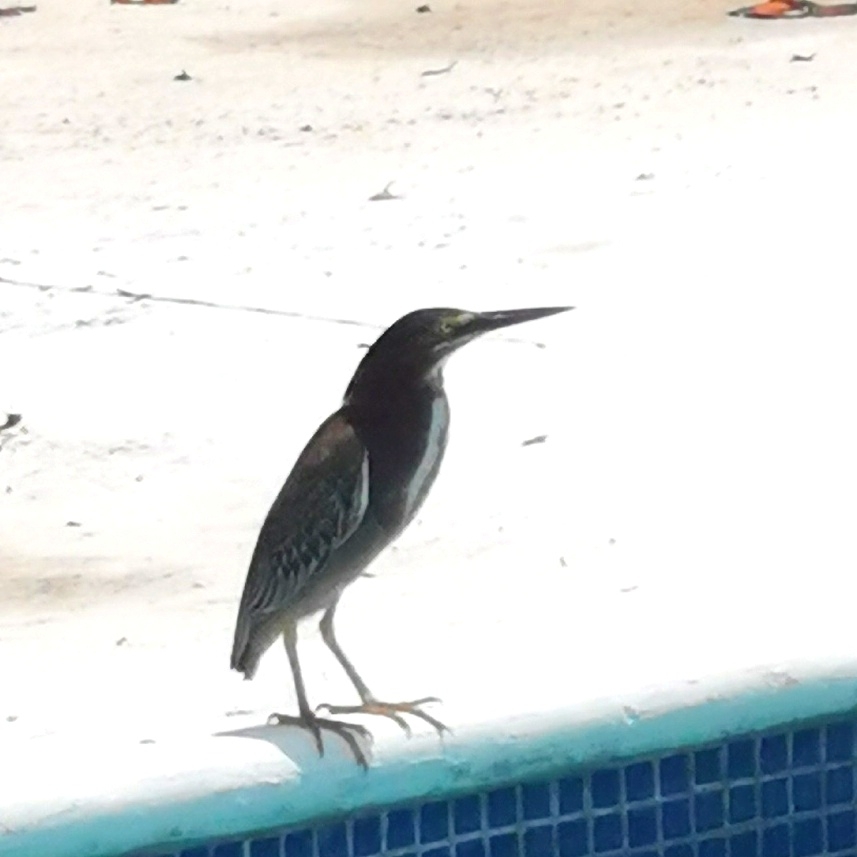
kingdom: Animalia
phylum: Chordata
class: Aves
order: Pelecaniformes
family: Ardeidae
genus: Butorides
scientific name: Butorides virescens
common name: Green heron
